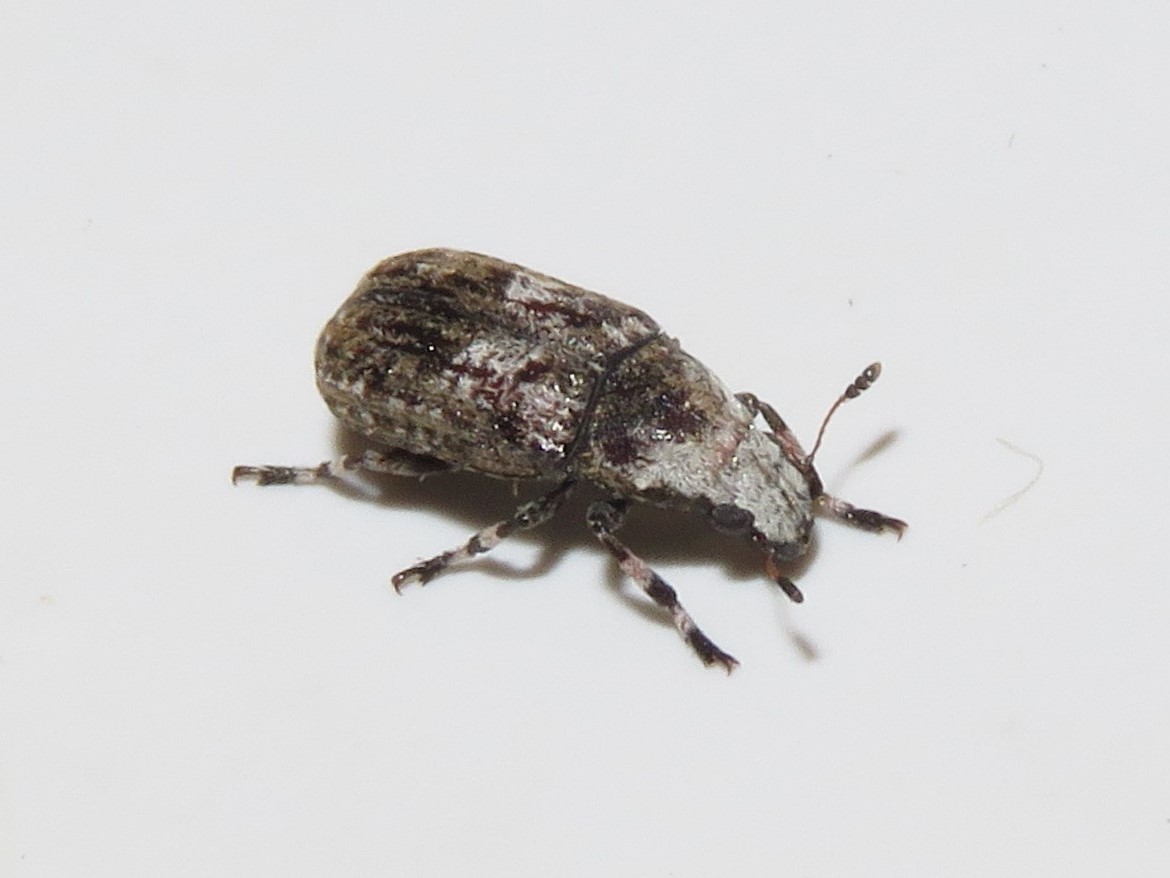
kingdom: Animalia
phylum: Arthropoda
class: Insecta
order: Coleoptera
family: Anthribidae
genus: Euparius
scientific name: Euparius marmoreus
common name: Marbled fungus weevil
